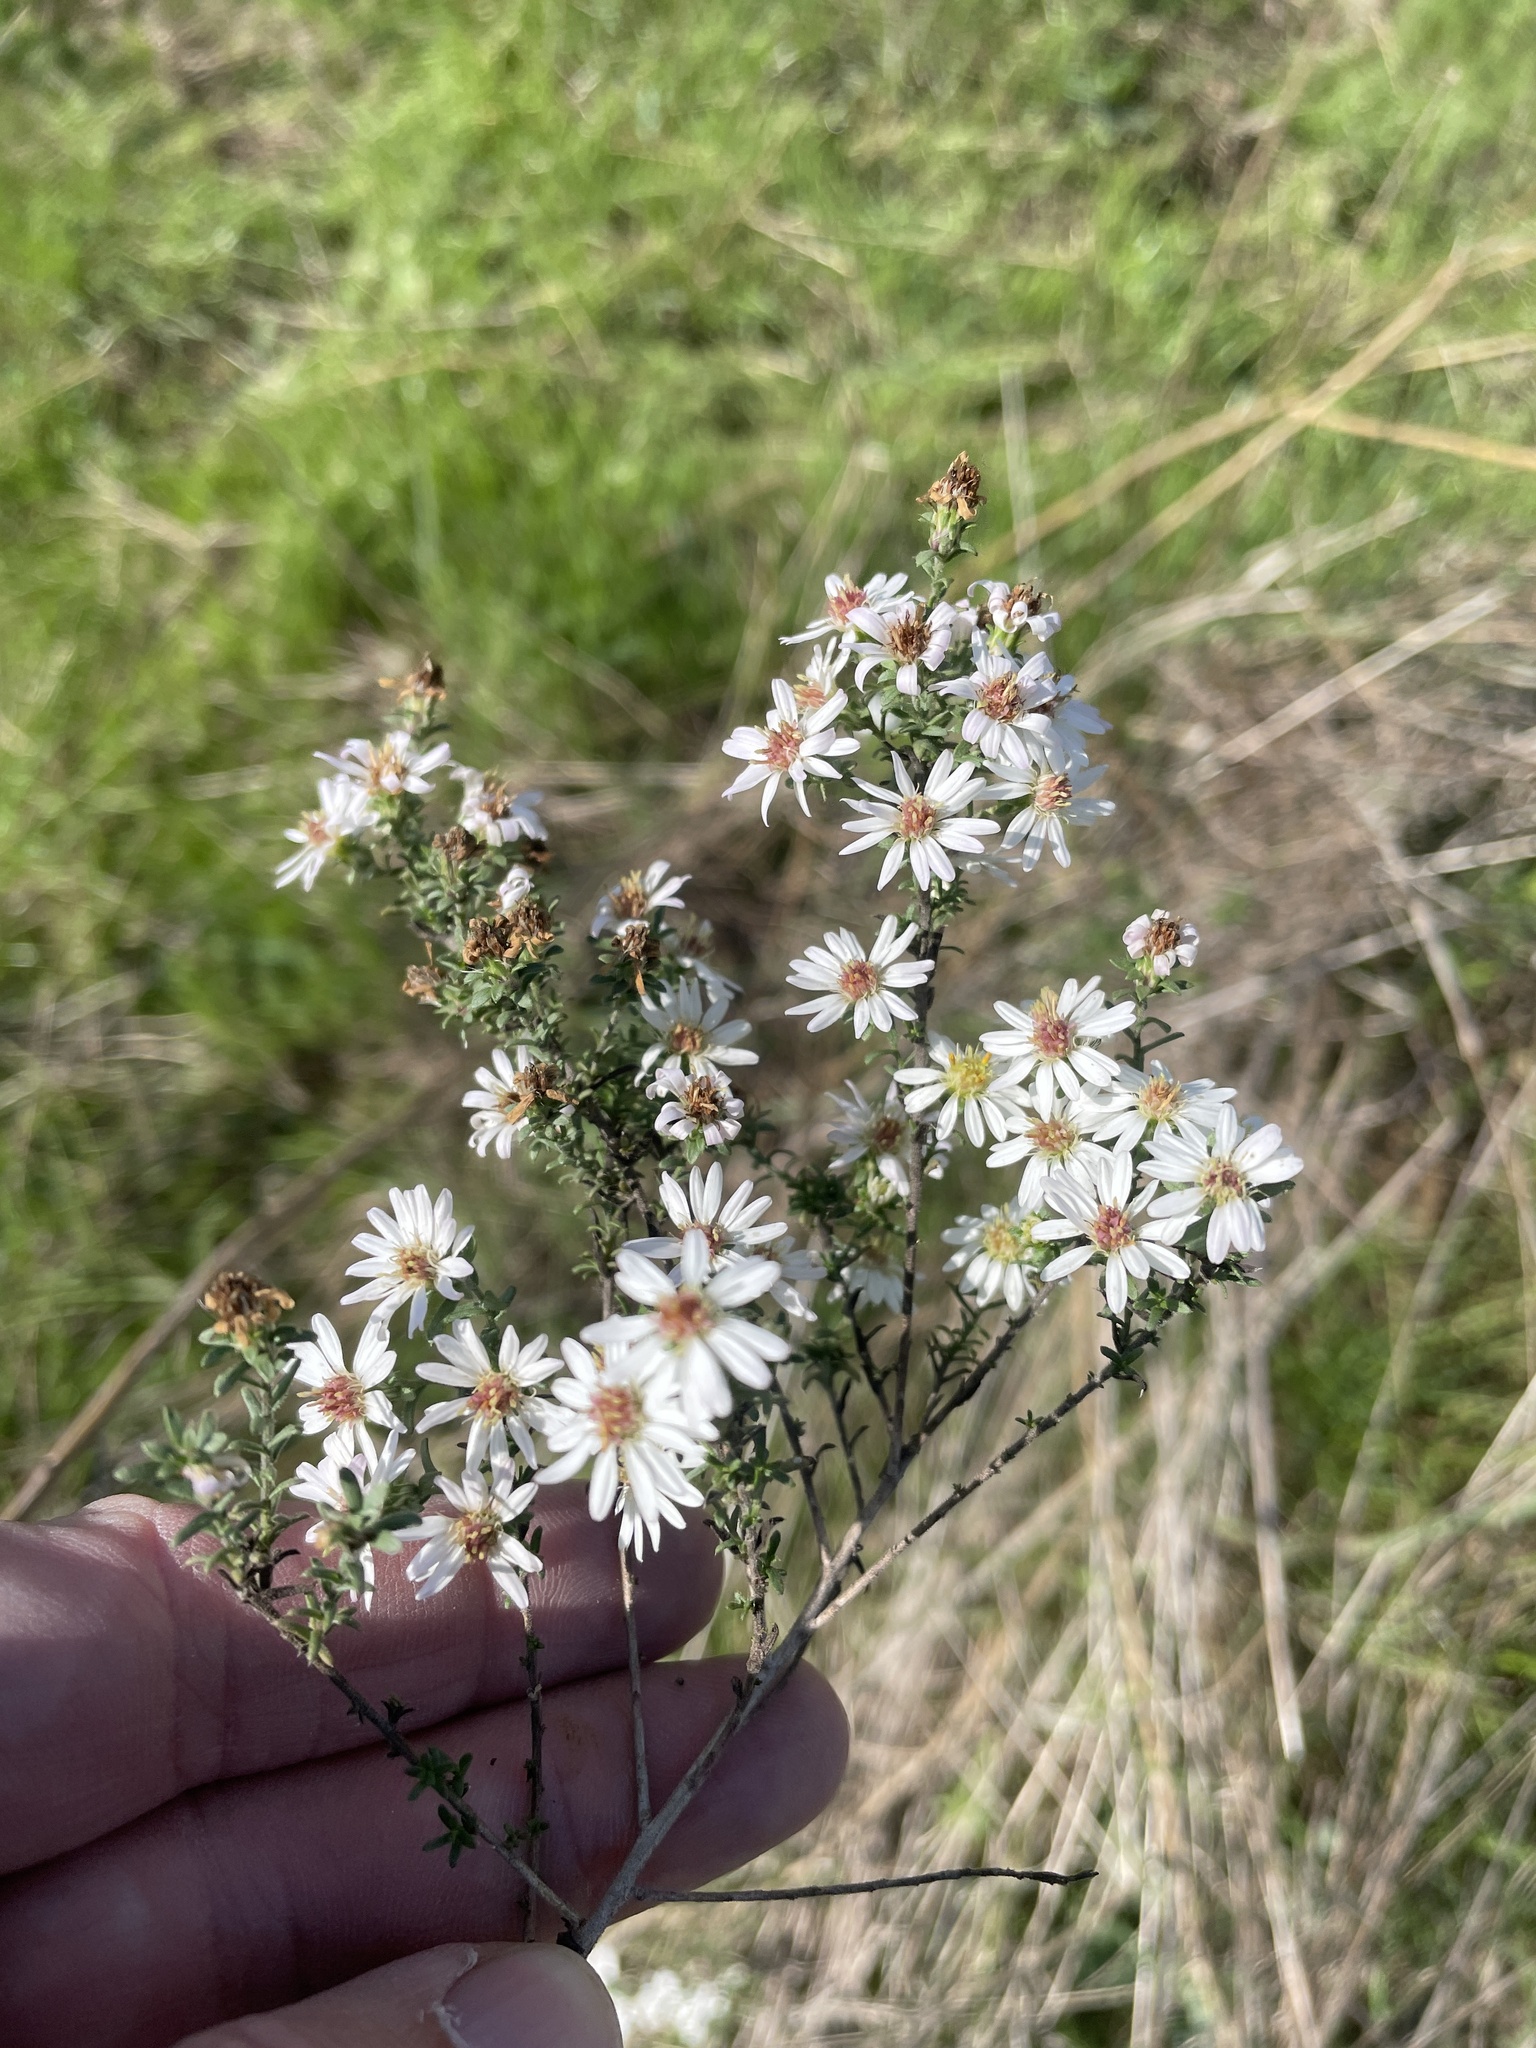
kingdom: Plantae
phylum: Tracheophyta
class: Magnoliopsida
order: Asterales
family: Asteraceae
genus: Symphyotrichum
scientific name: Symphyotrichum ericoides
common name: Heath aster
